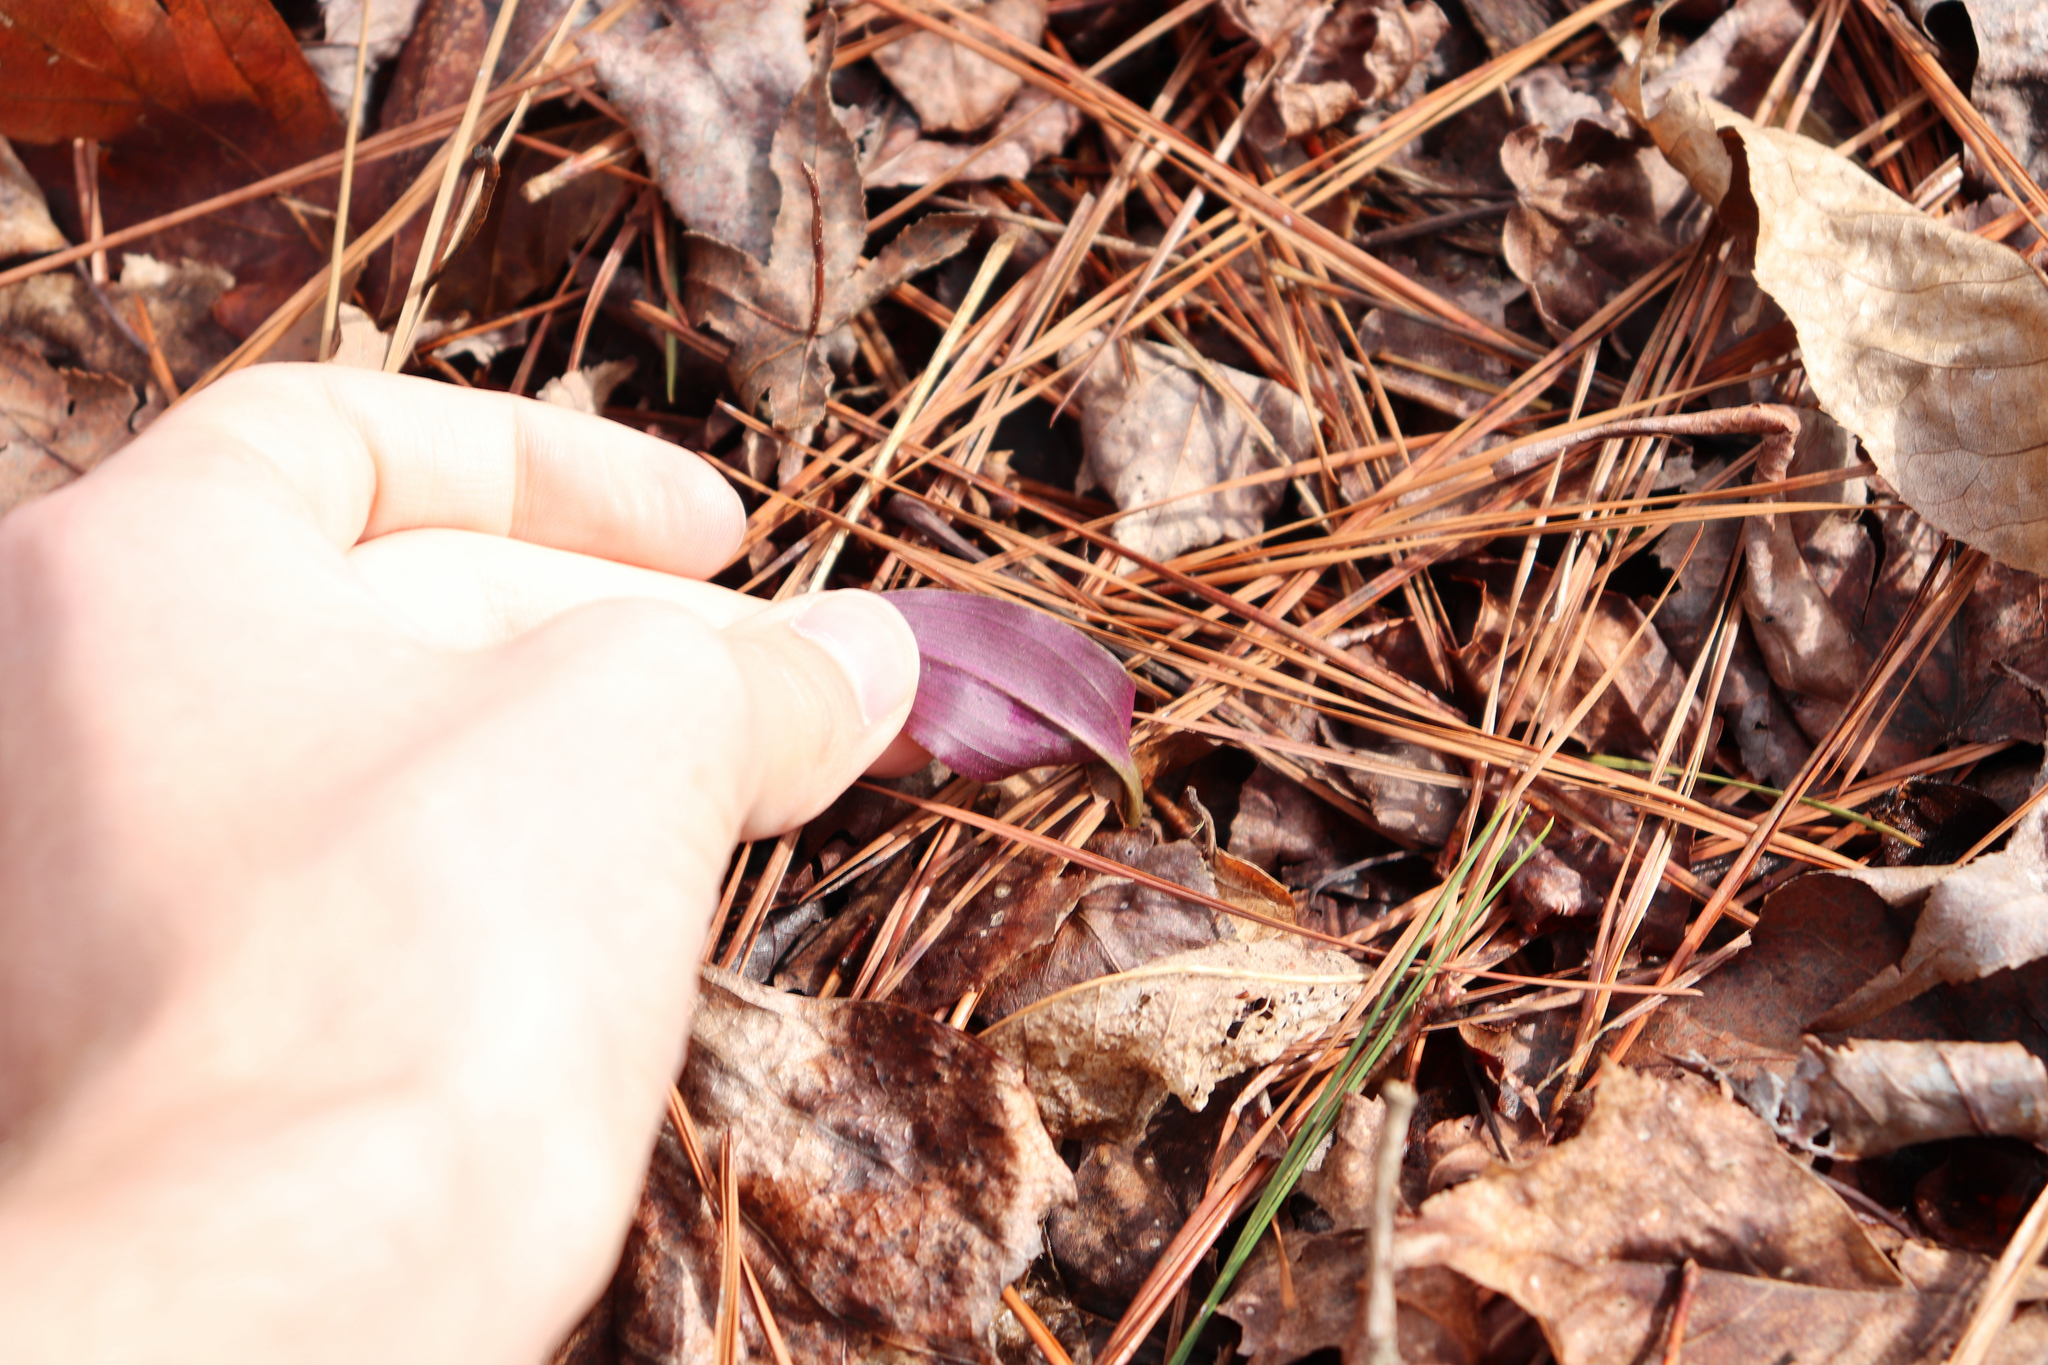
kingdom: Plantae
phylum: Tracheophyta
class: Liliopsida
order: Asparagales
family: Orchidaceae
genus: Tipularia
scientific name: Tipularia discolor
